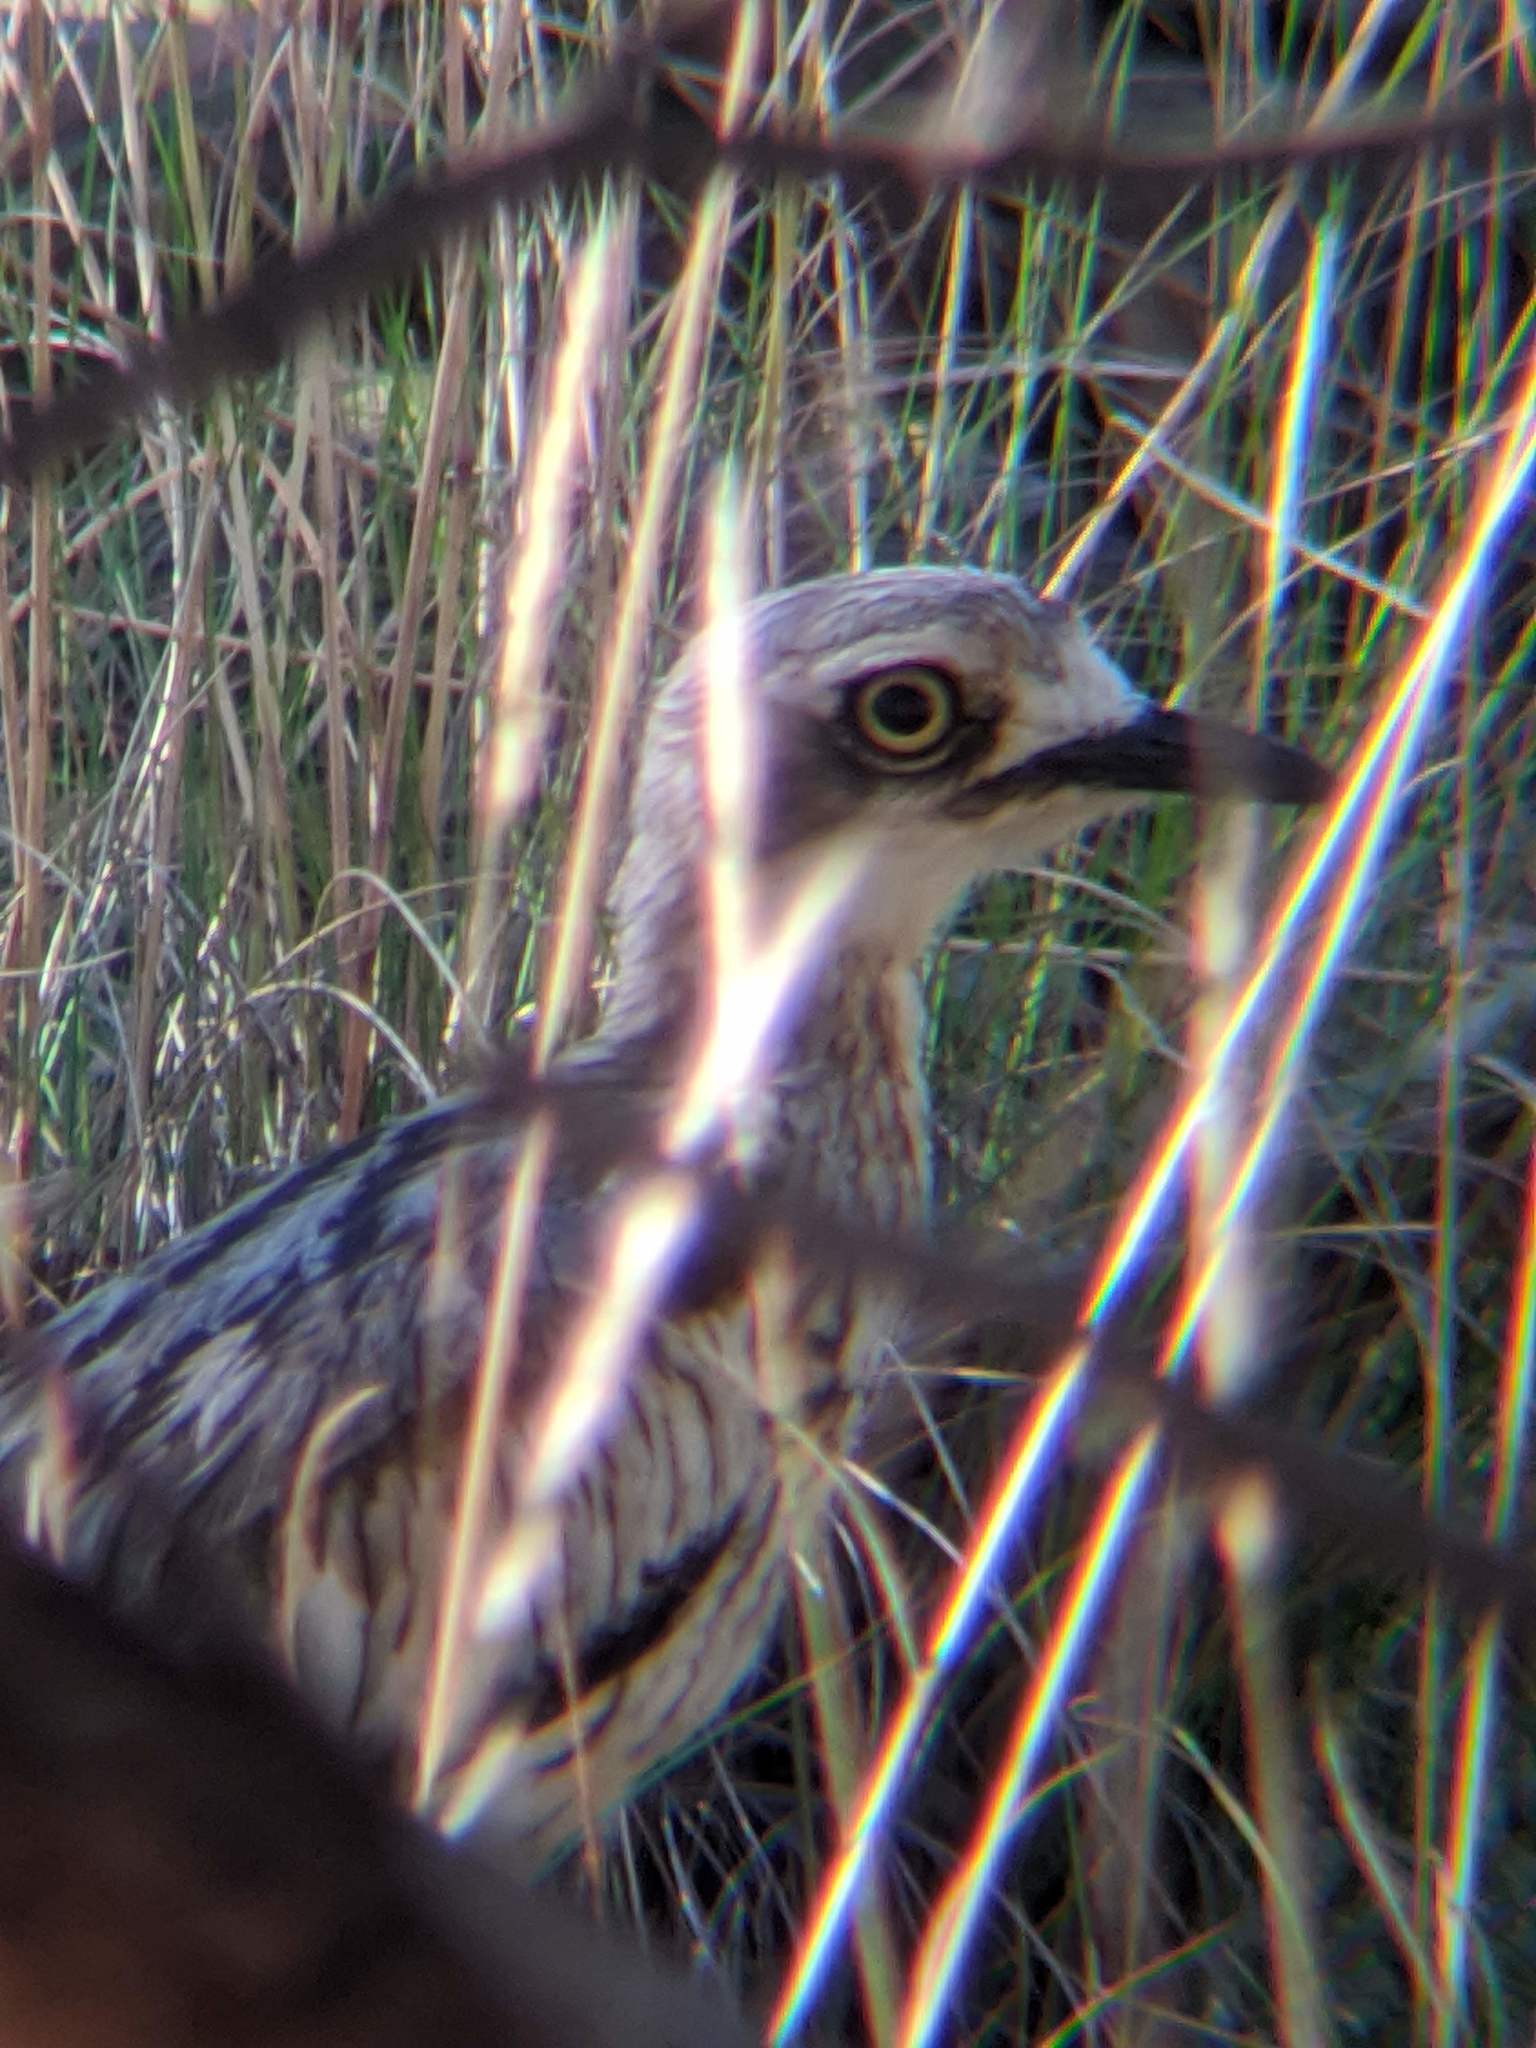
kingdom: Animalia
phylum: Chordata
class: Aves
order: Charadriiformes
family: Burhinidae
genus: Burhinus
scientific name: Burhinus grallarius
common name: Bush stone-curlew
